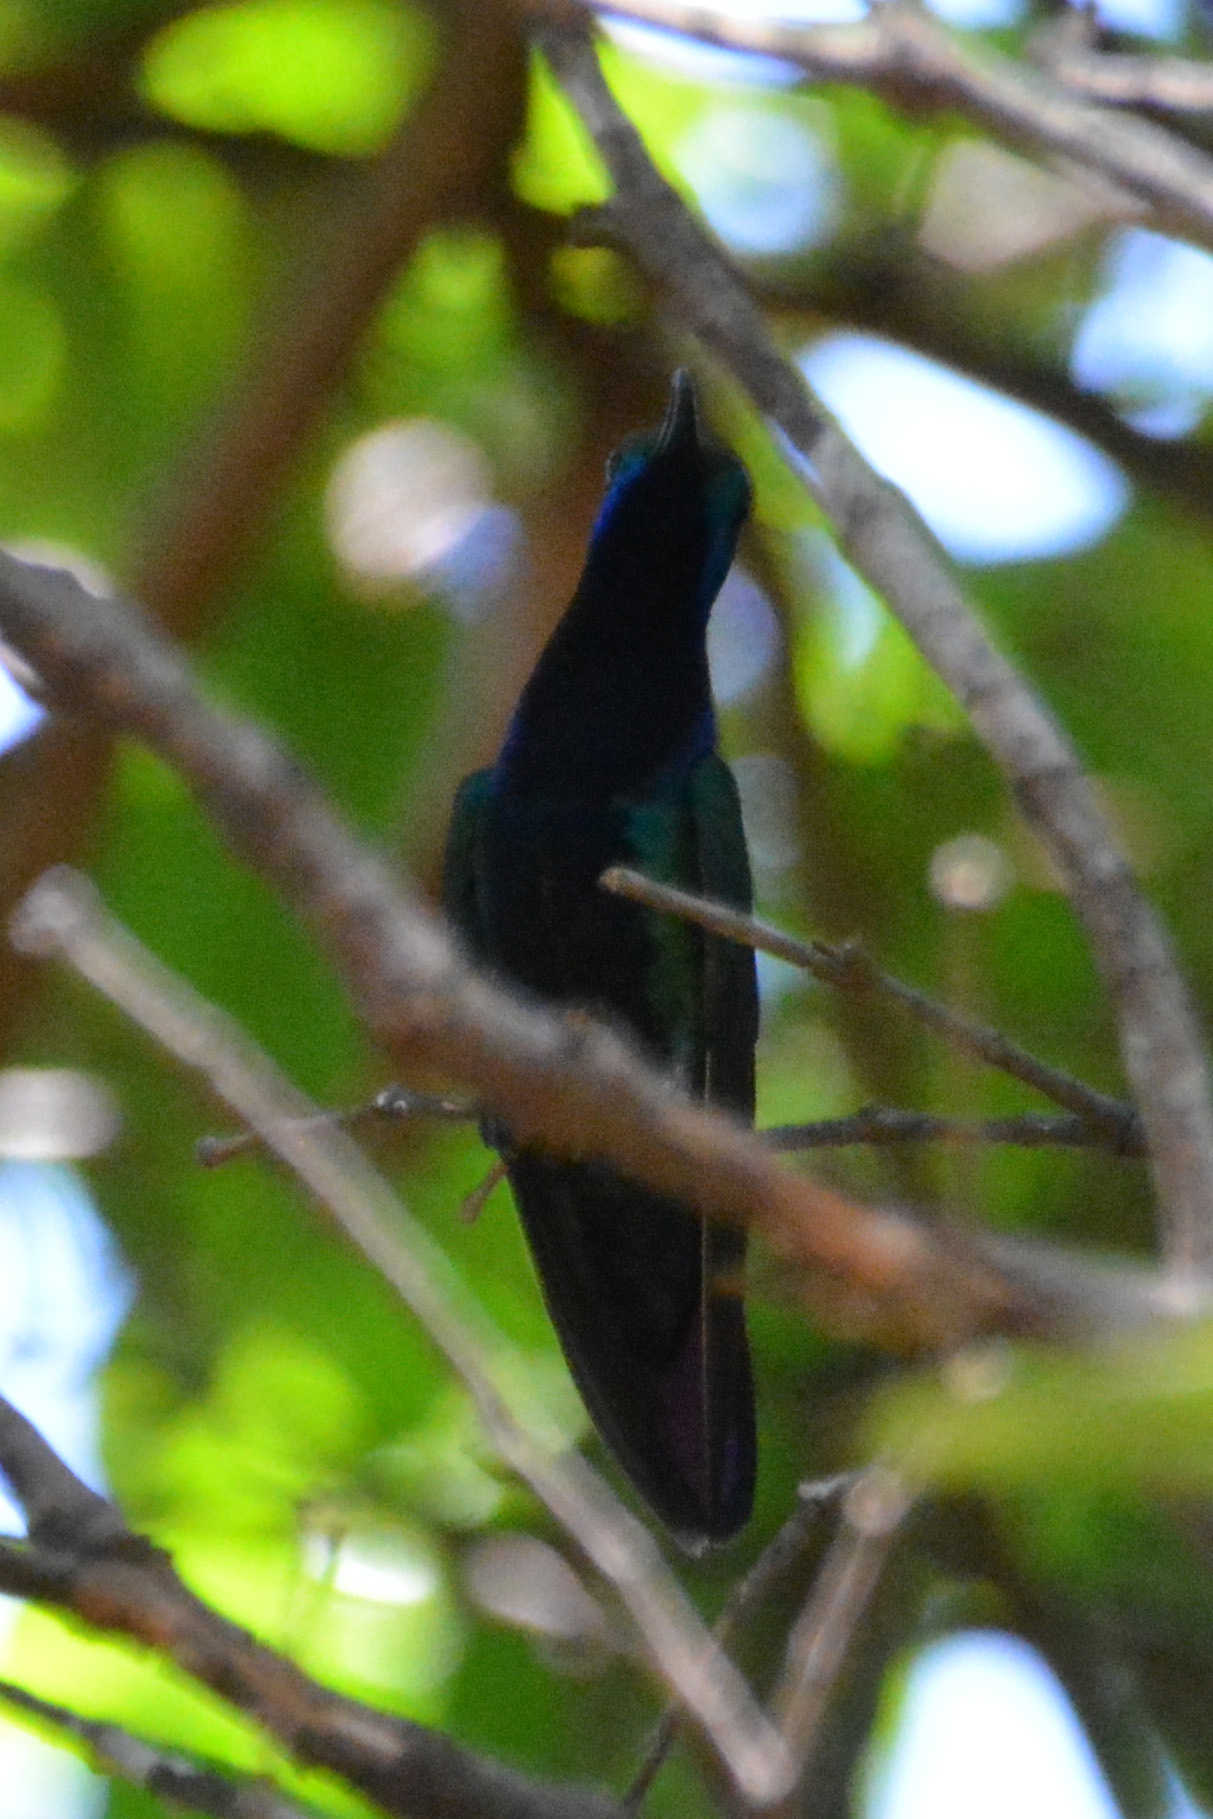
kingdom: Animalia
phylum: Chordata
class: Aves
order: Apodiformes
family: Trochilidae
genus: Anthracothorax
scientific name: Anthracothorax nigricollis
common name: Black-throated mango
